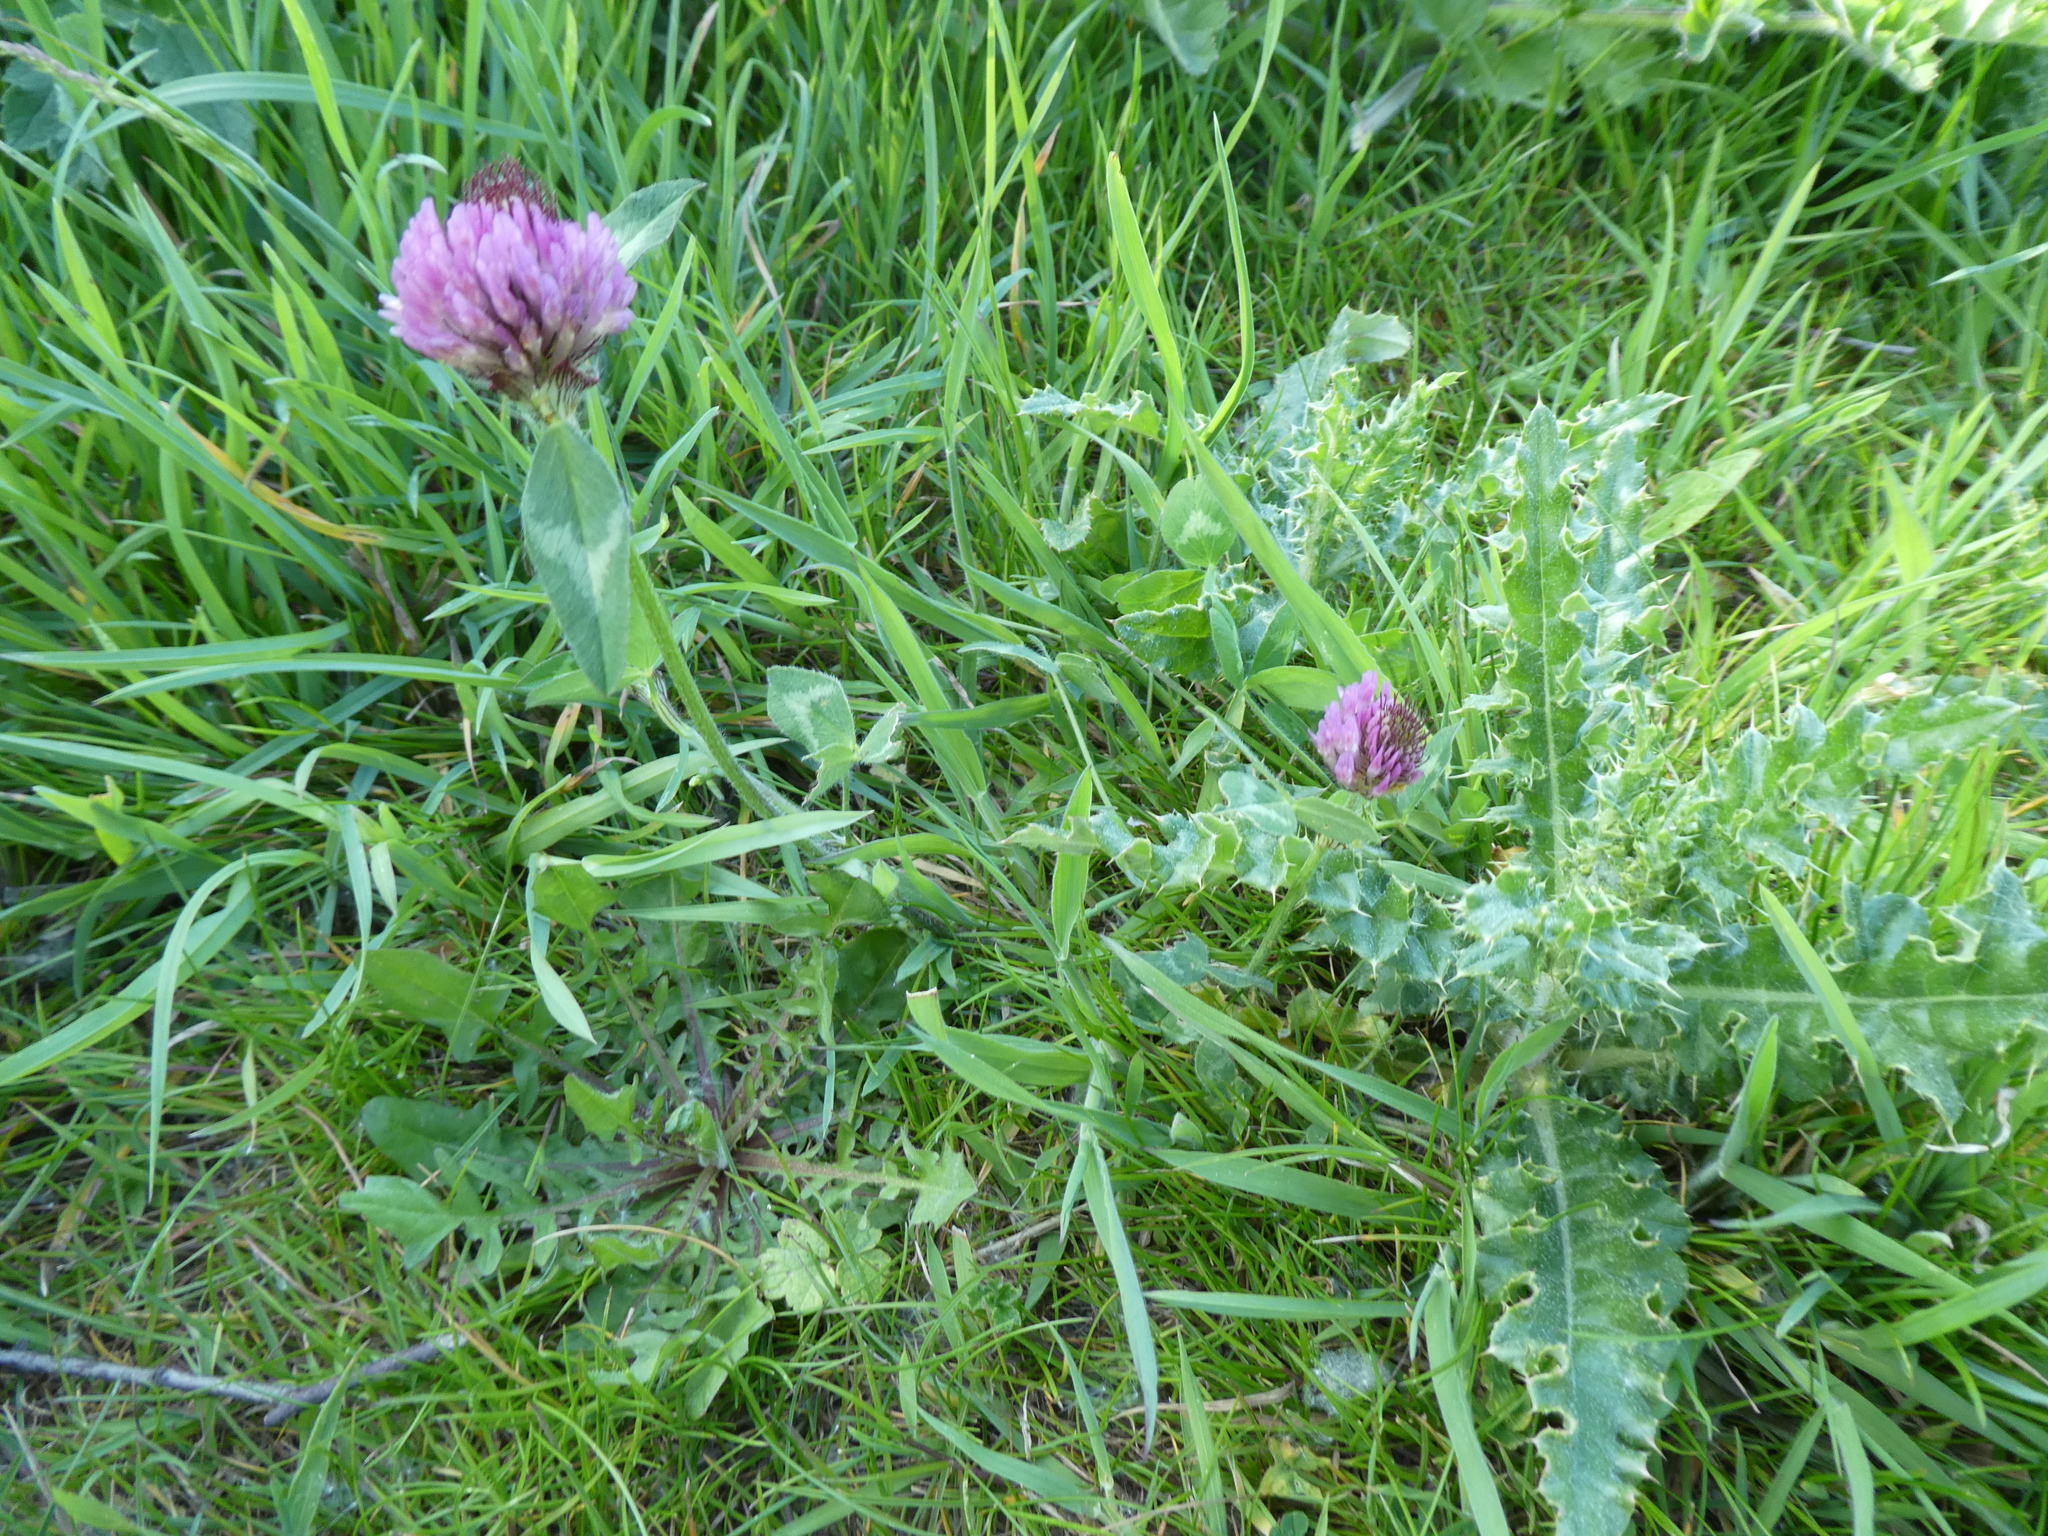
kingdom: Plantae
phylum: Tracheophyta
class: Magnoliopsida
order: Fabales
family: Fabaceae
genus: Trifolium
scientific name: Trifolium pratense
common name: Red clover
